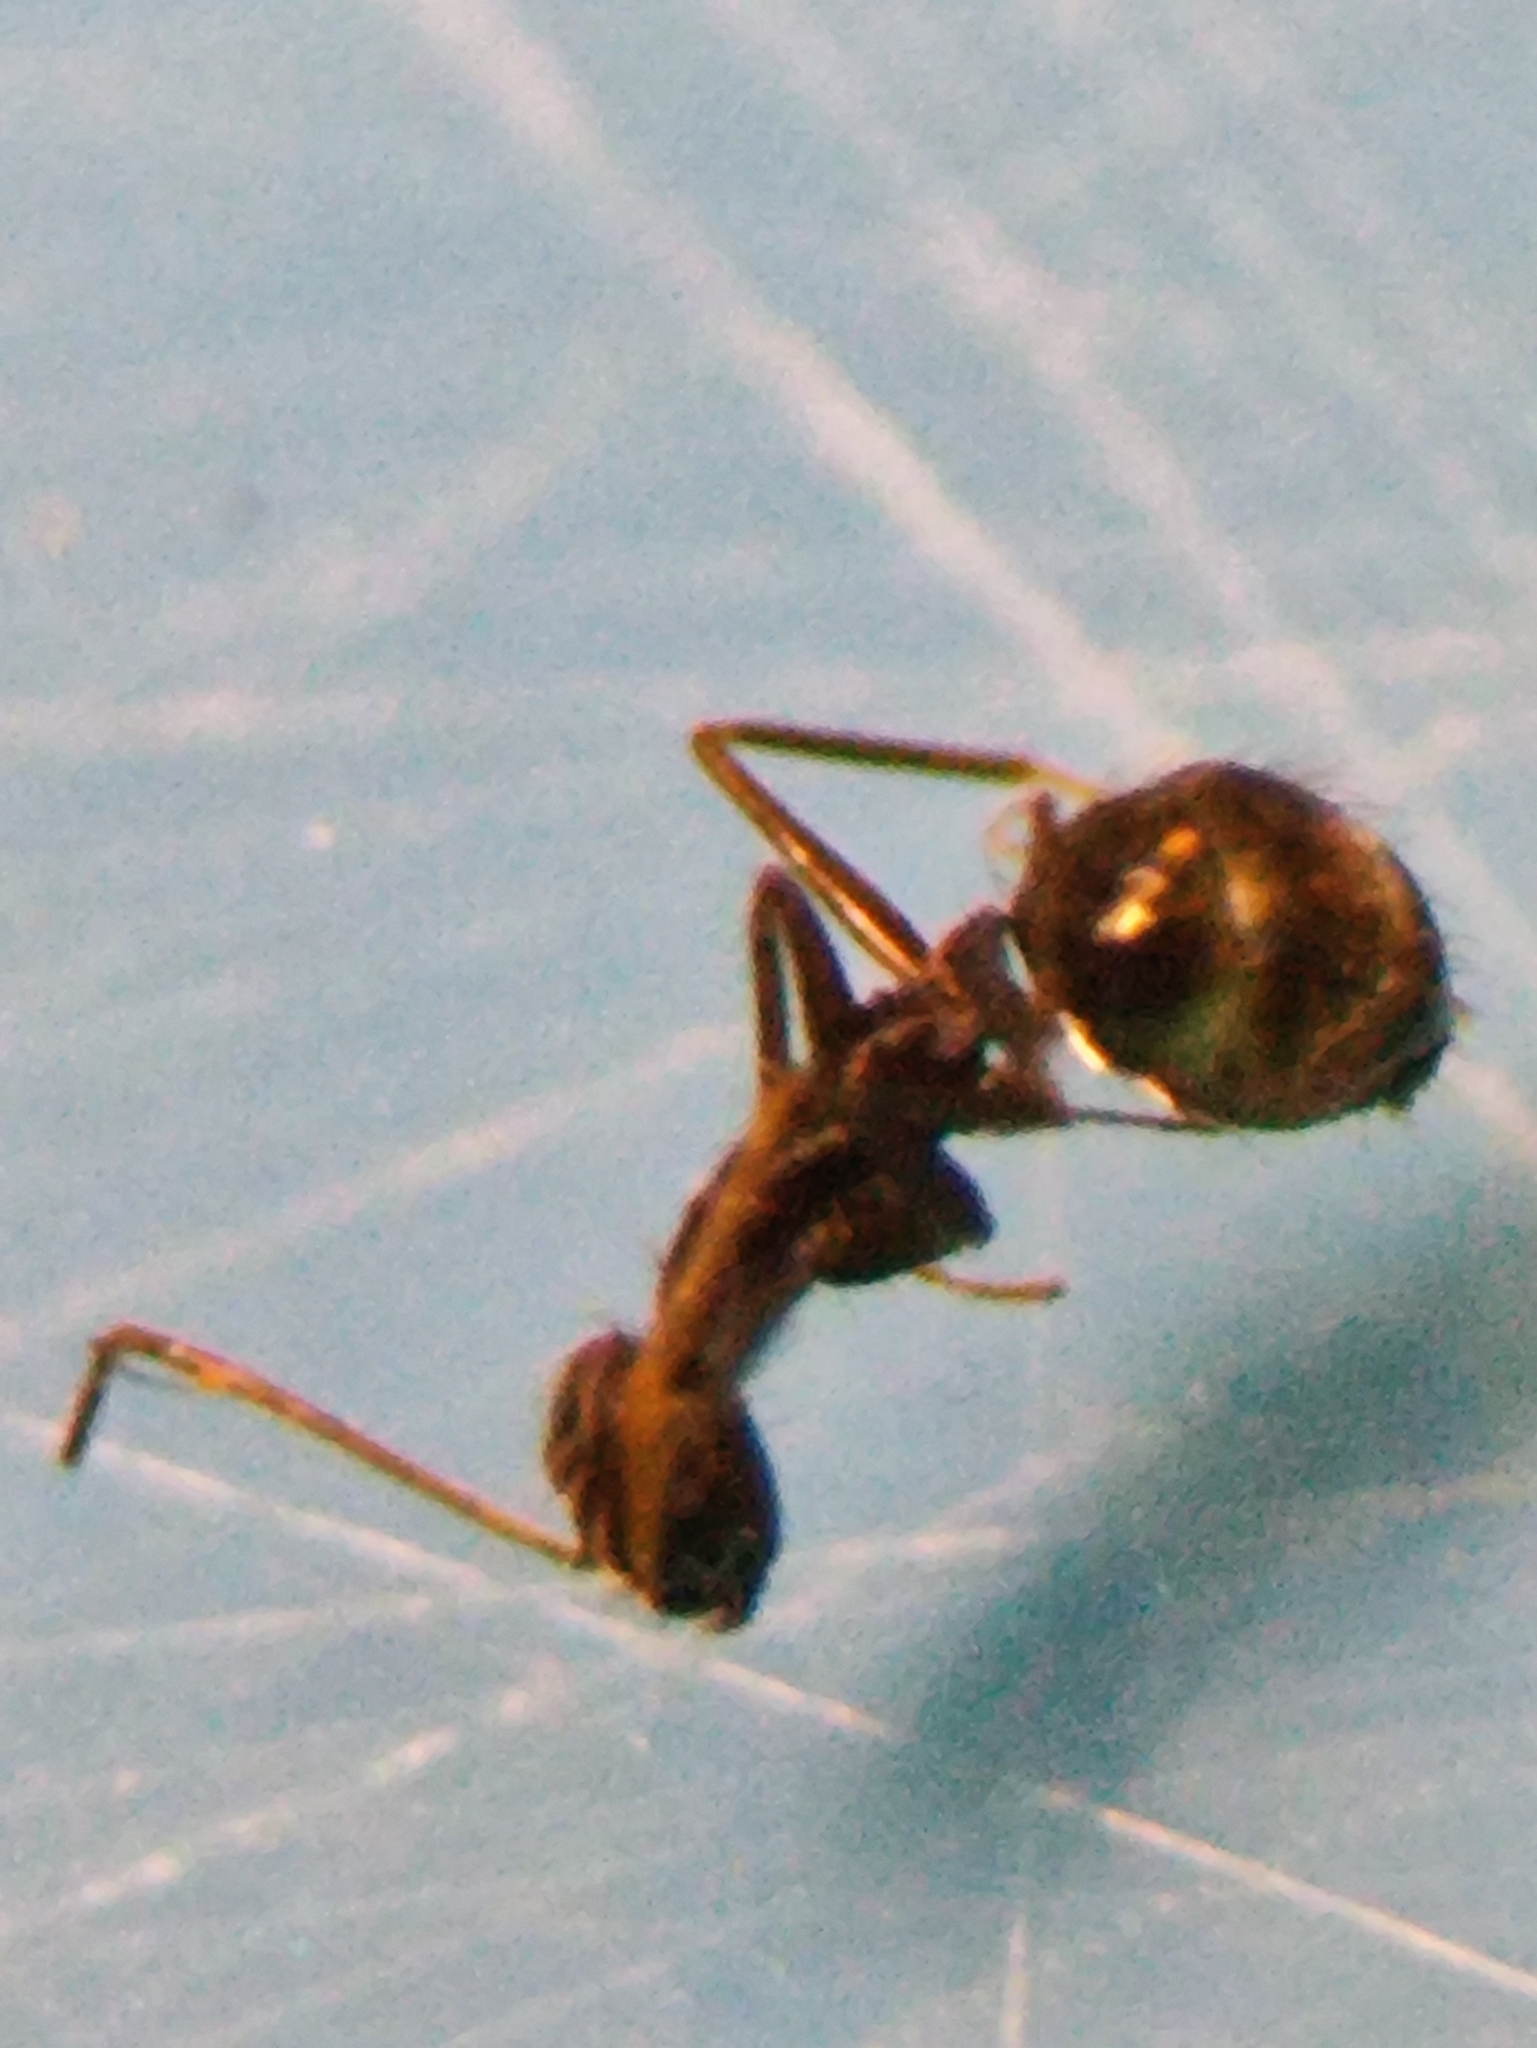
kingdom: Animalia
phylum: Arthropoda
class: Insecta
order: Hymenoptera
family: Formicidae
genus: Paratrechina
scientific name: Paratrechina longicornis
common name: Longhorned crazy ant
